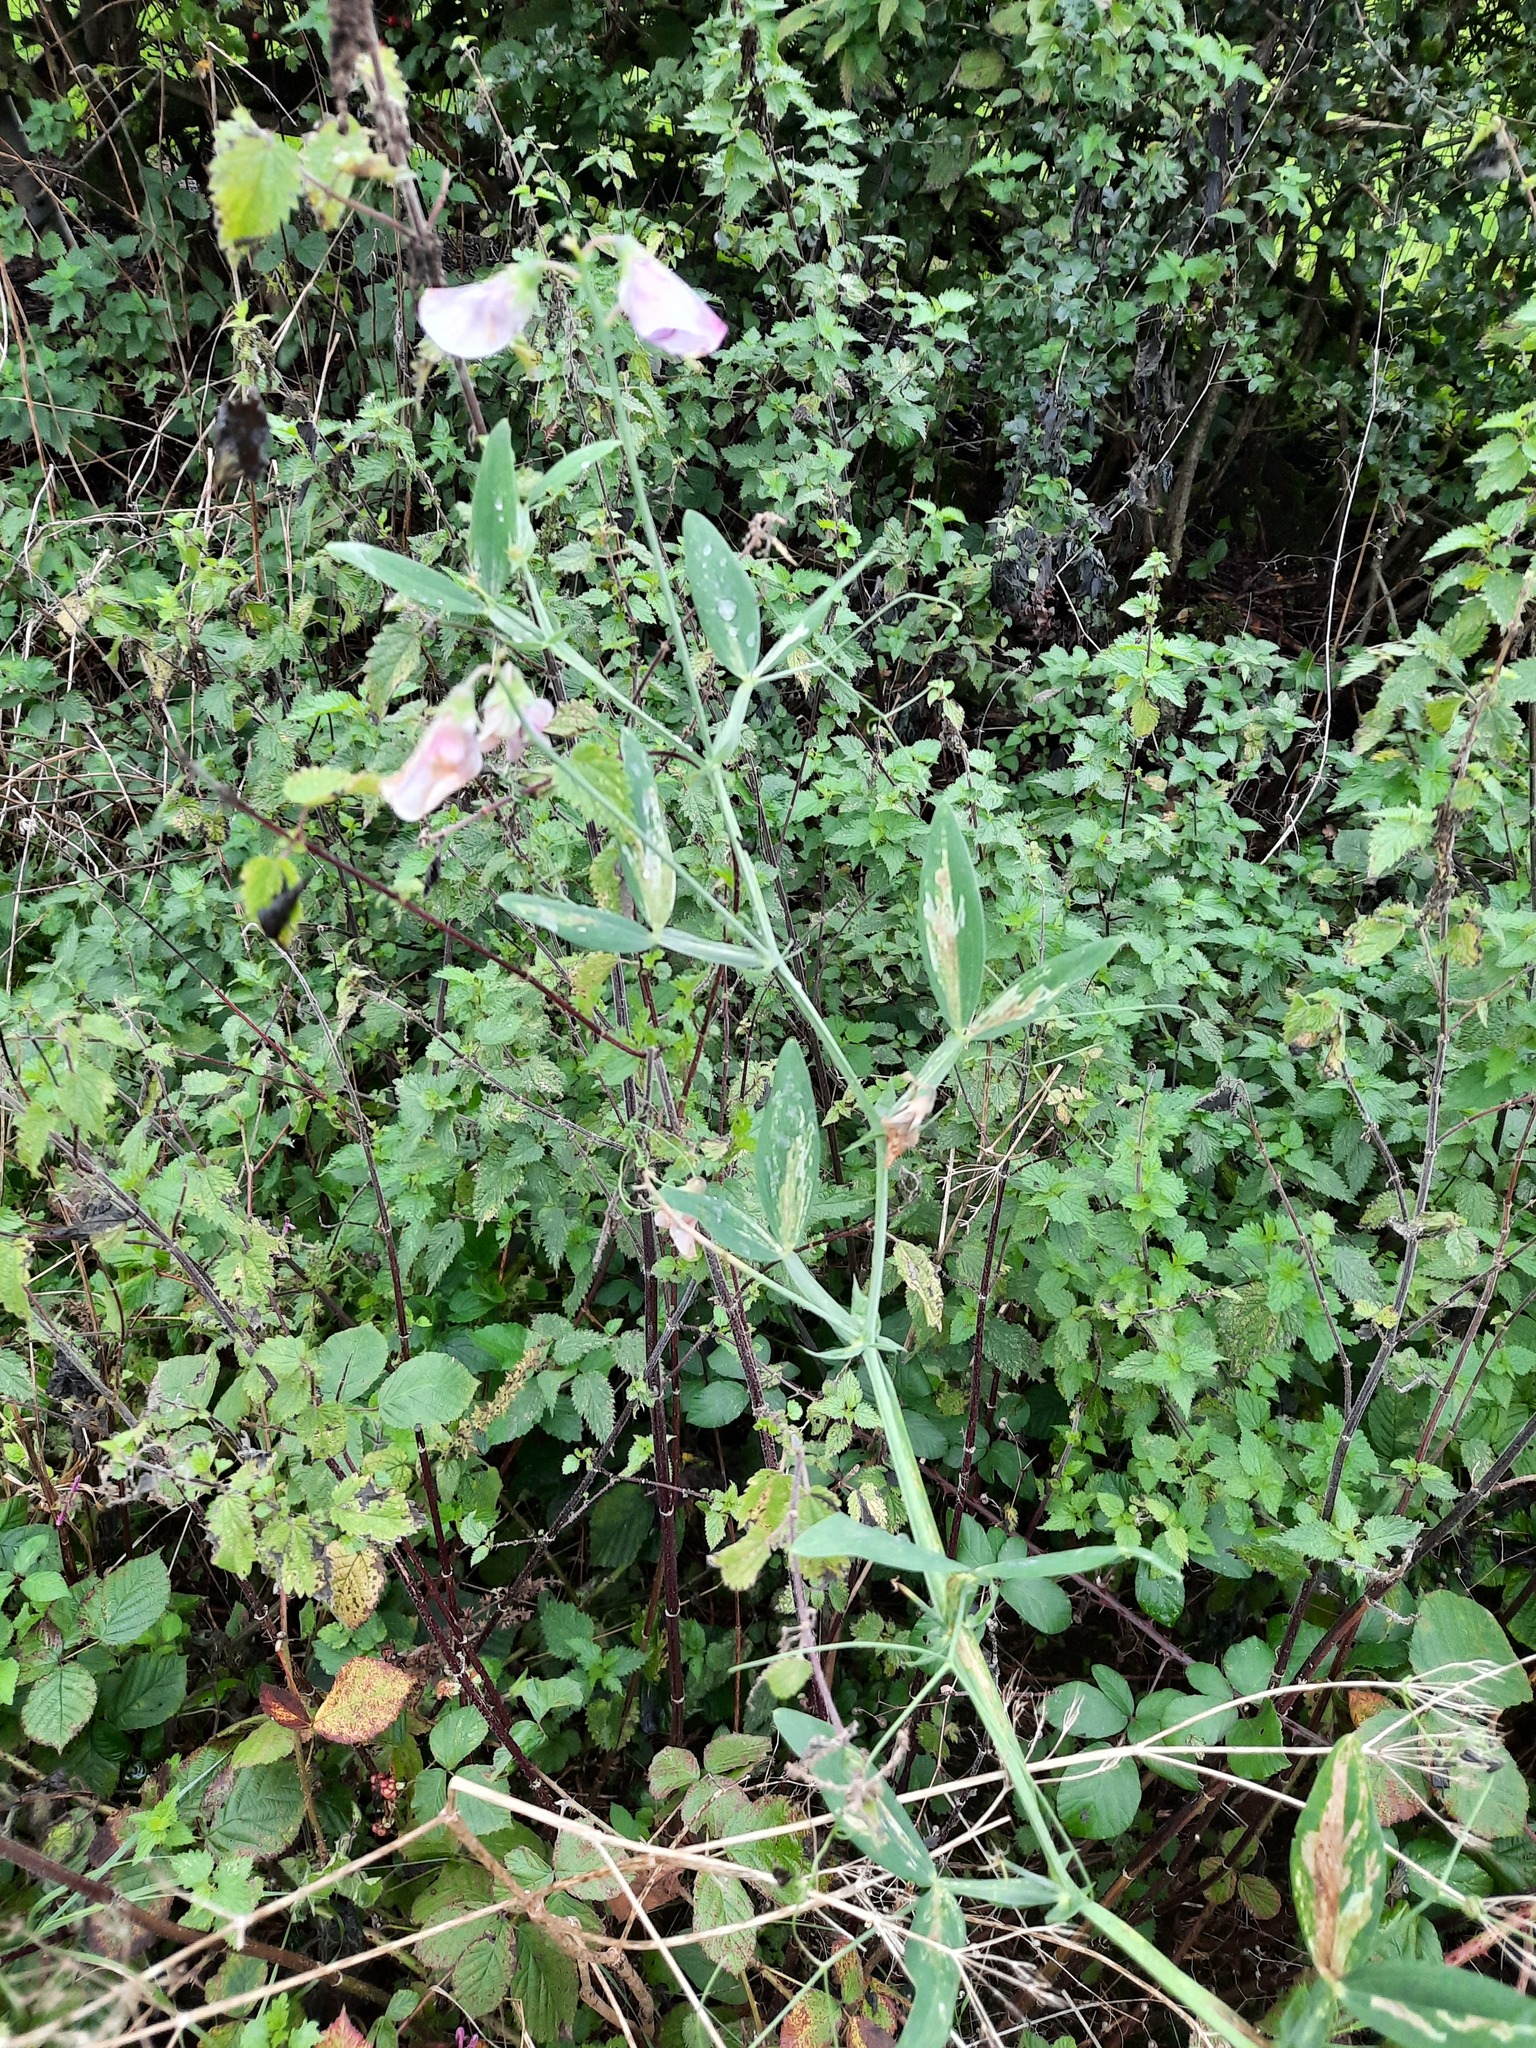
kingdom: Plantae
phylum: Tracheophyta
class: Magnoliopsida
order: Fabales
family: Fabaceae
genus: Lathyrus
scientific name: Lathyrus latifolius
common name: Perennial pea
